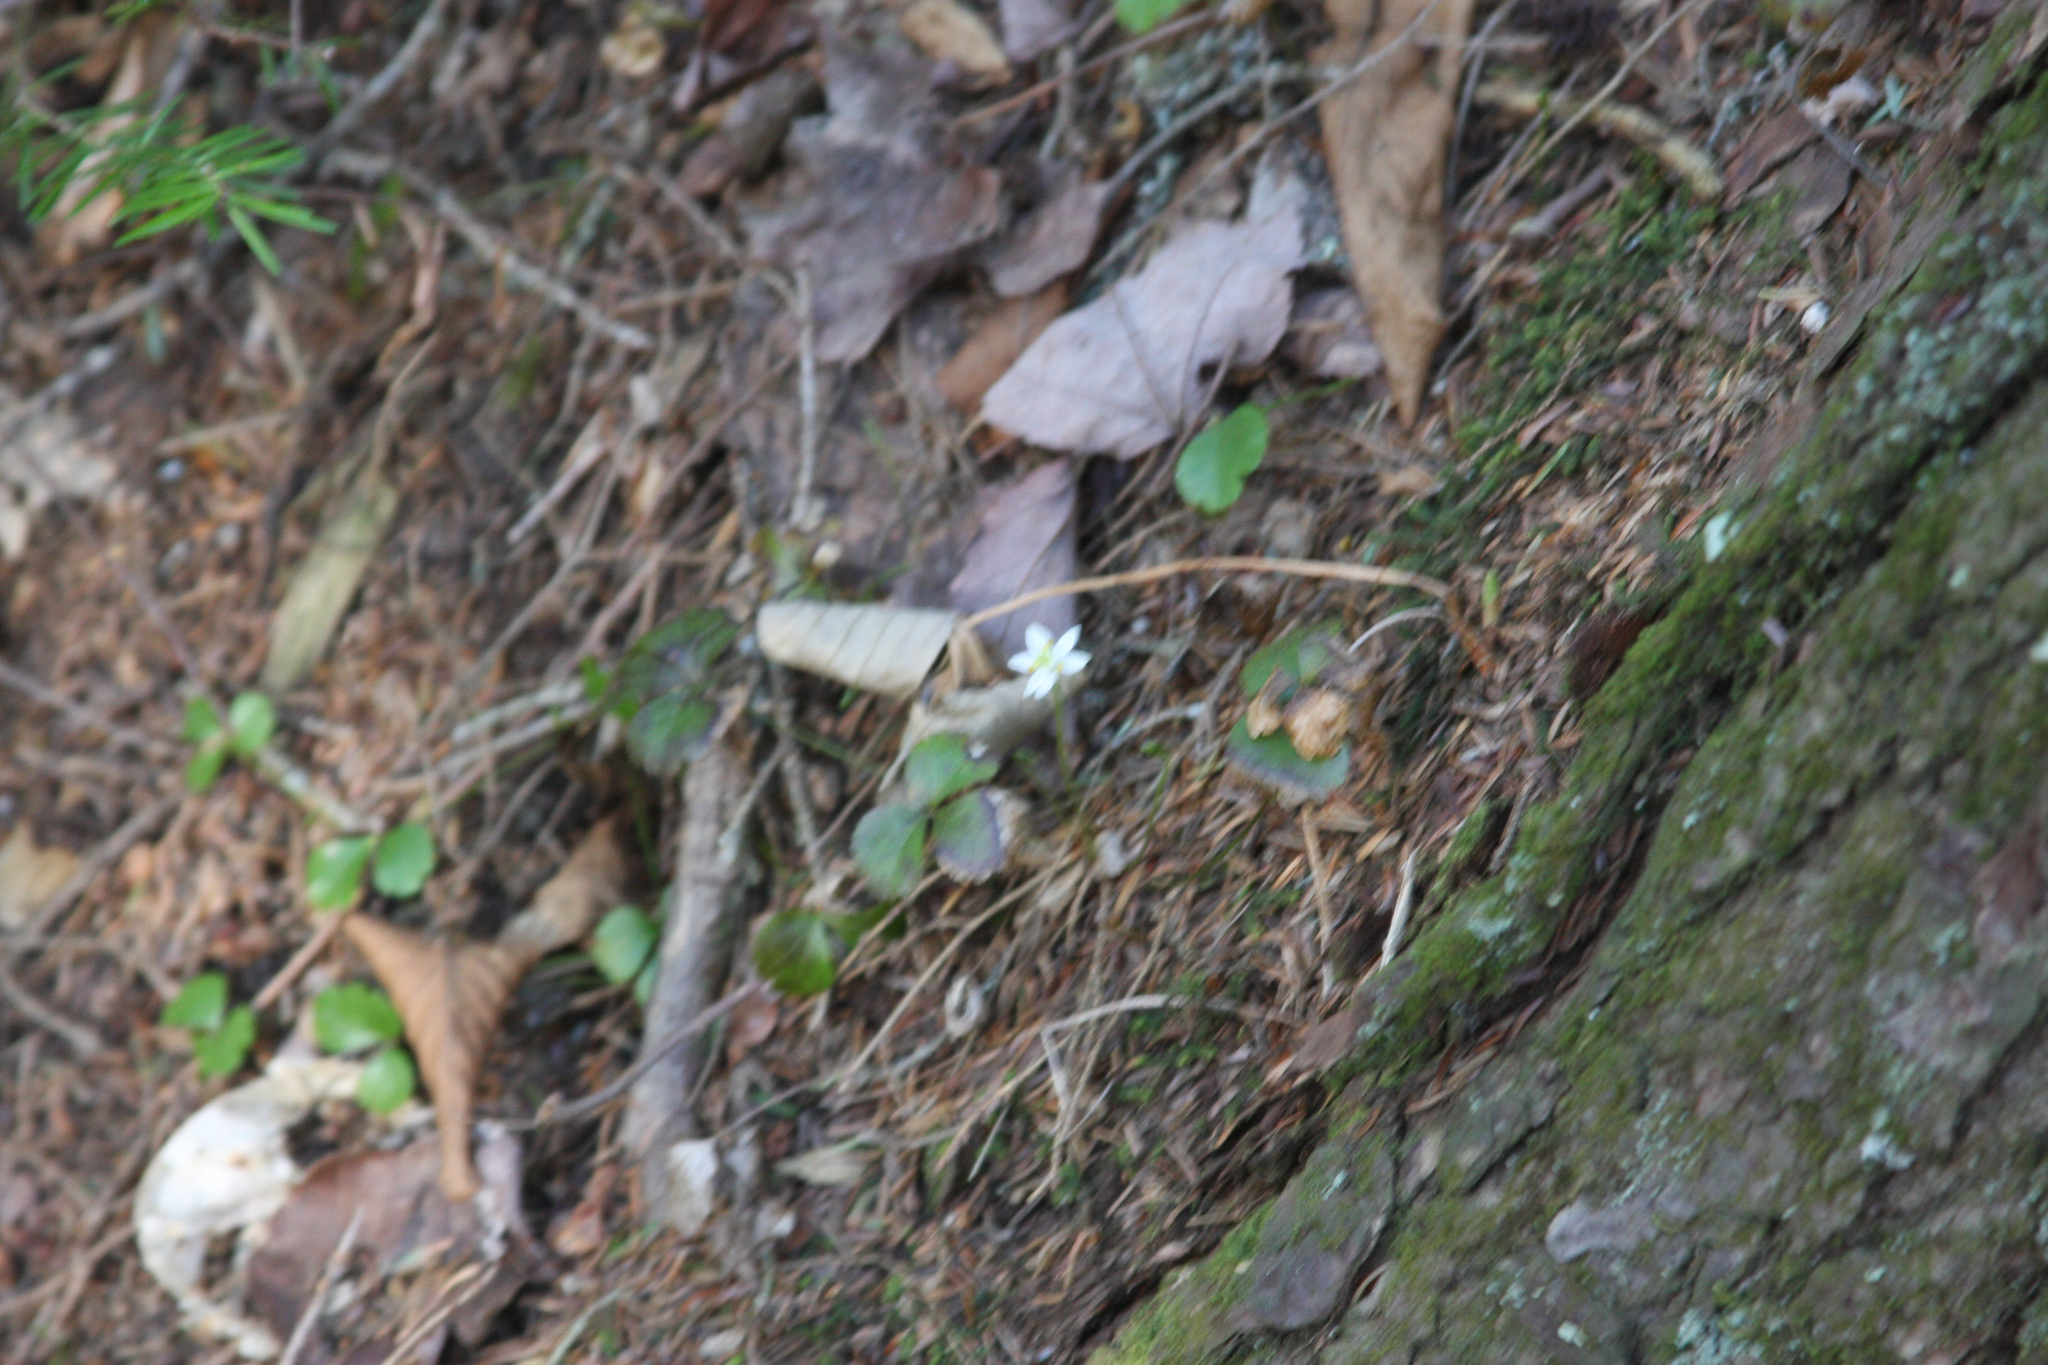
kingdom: Plantae
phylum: Tracheophyta
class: Magnoliopsida
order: Ranunculales
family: Ranunculaceae
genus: Coptis
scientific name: Coptis trifolia
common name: Canker-root
